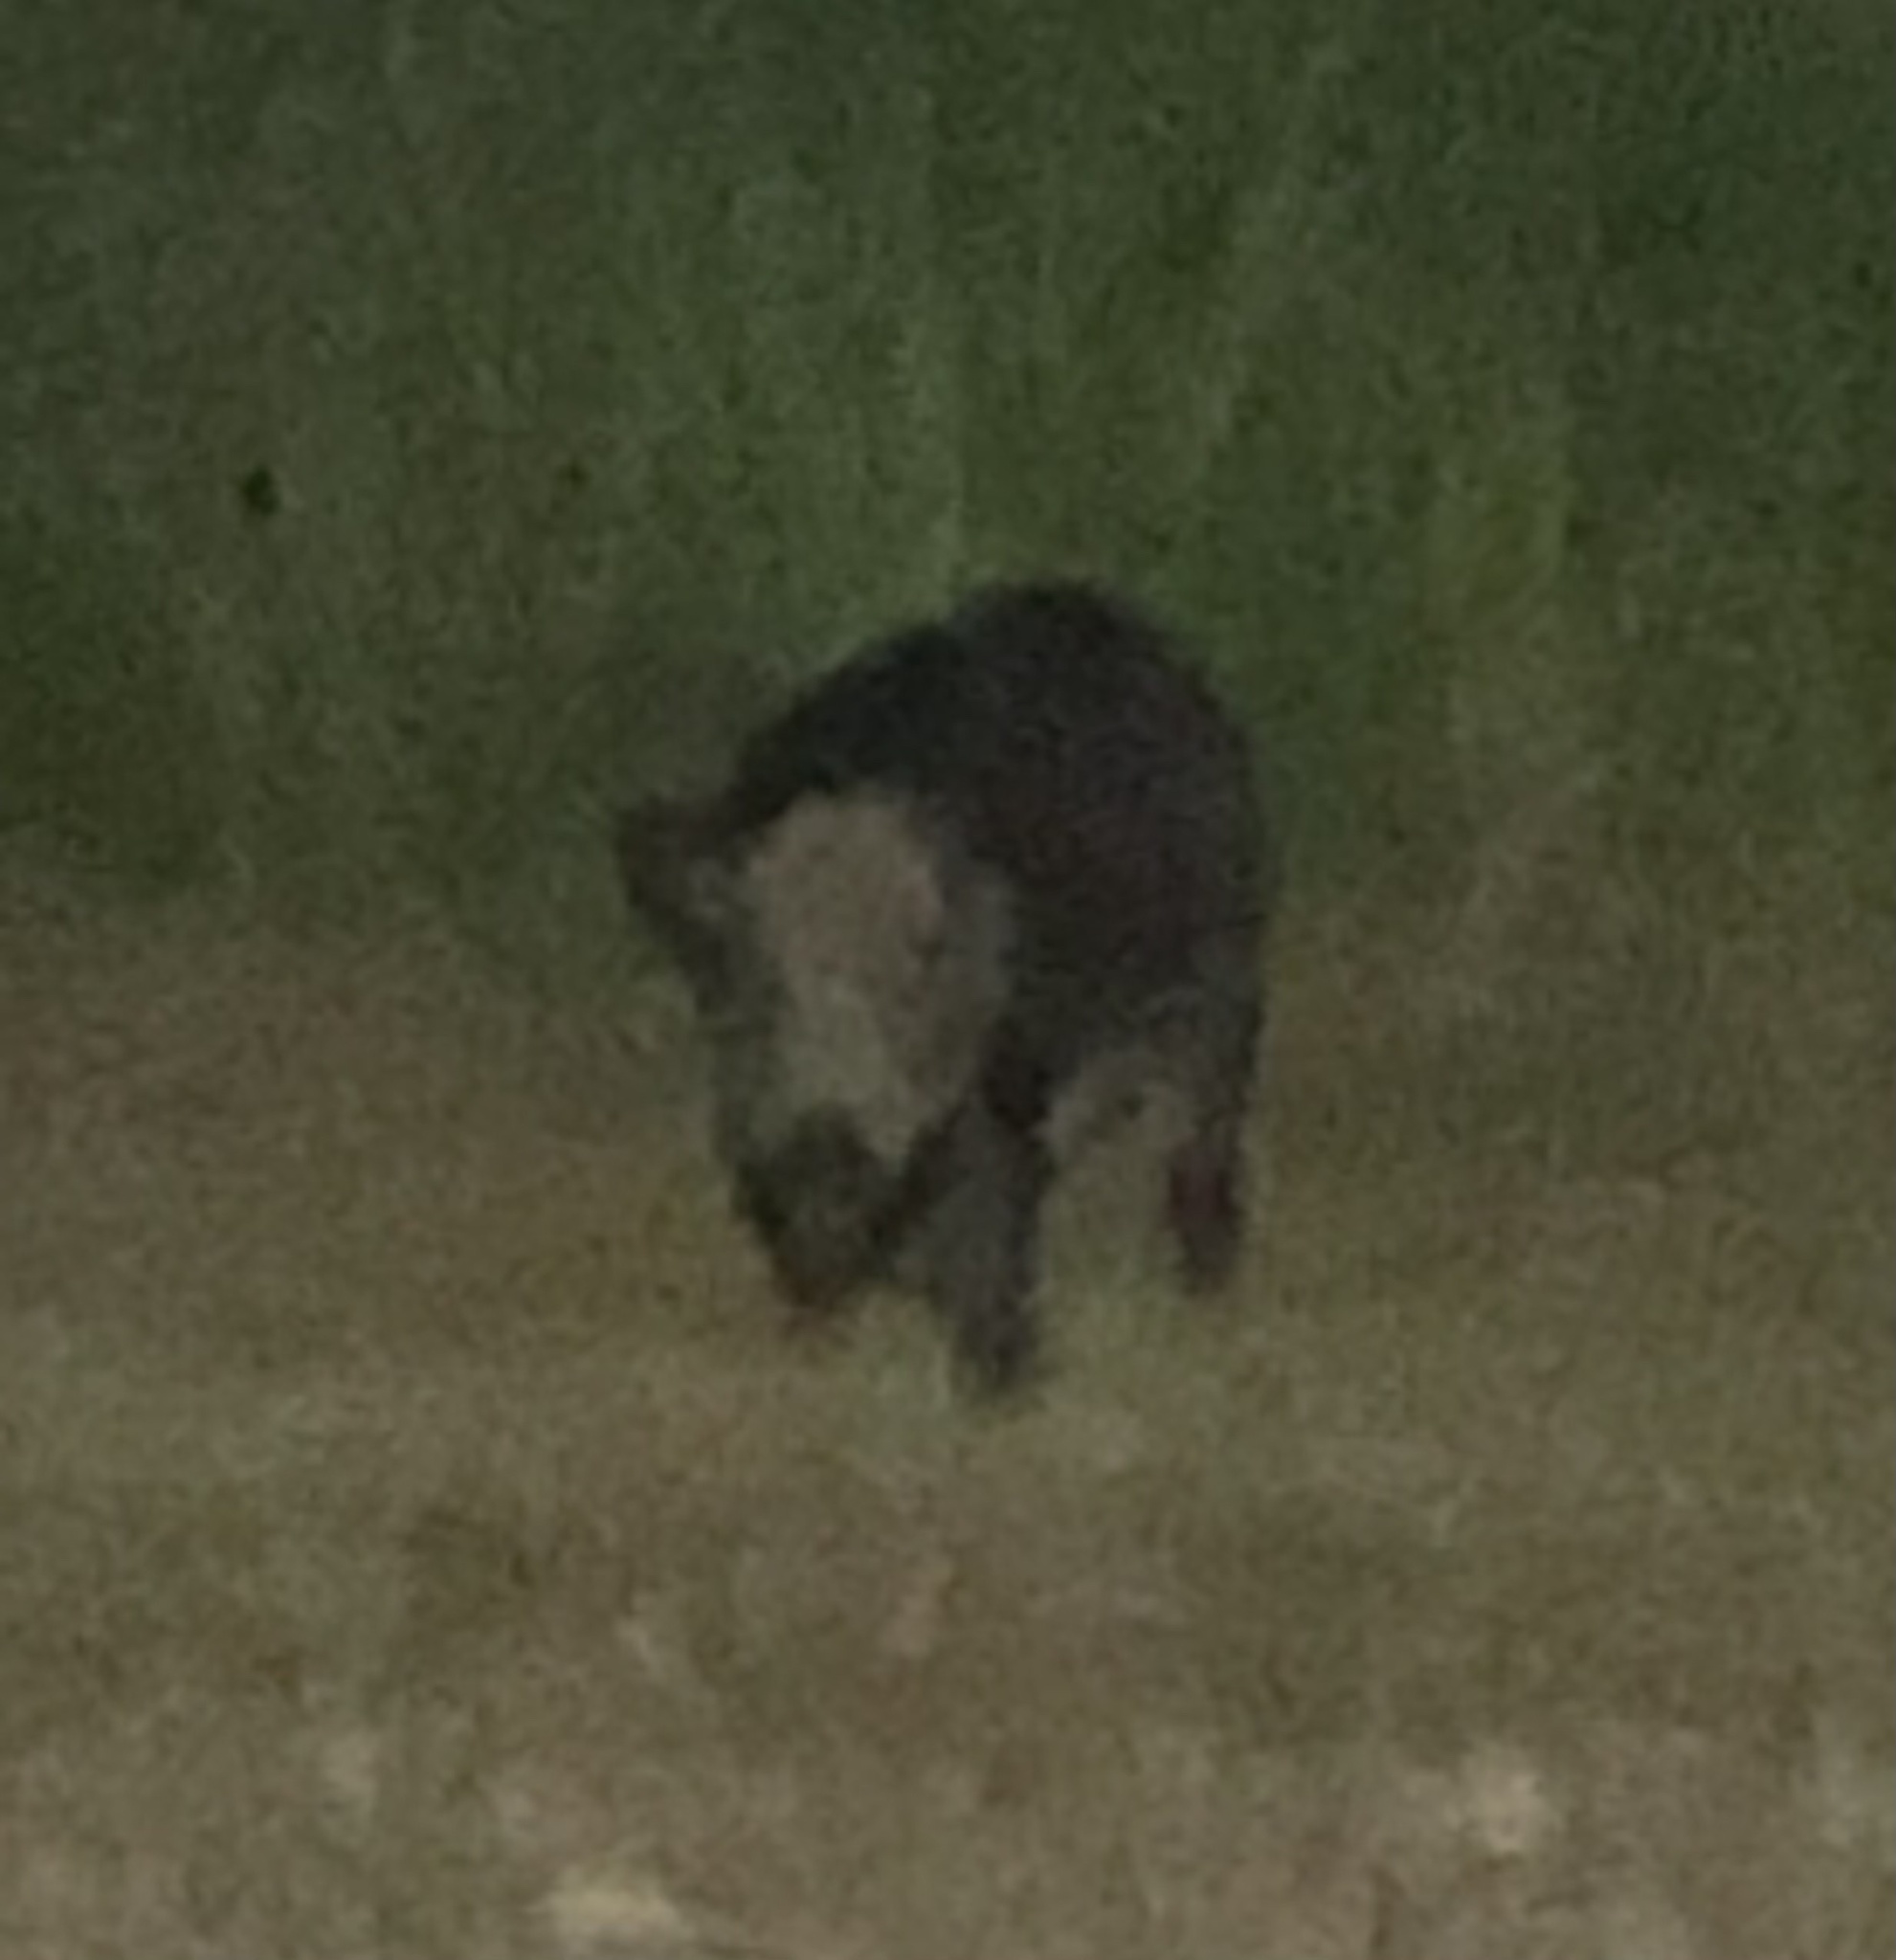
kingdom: Animalia
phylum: Chordata
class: Mammalia
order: Artiodactyla
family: Suidae
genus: Sus
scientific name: Sus scrofa
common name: Wild boar
